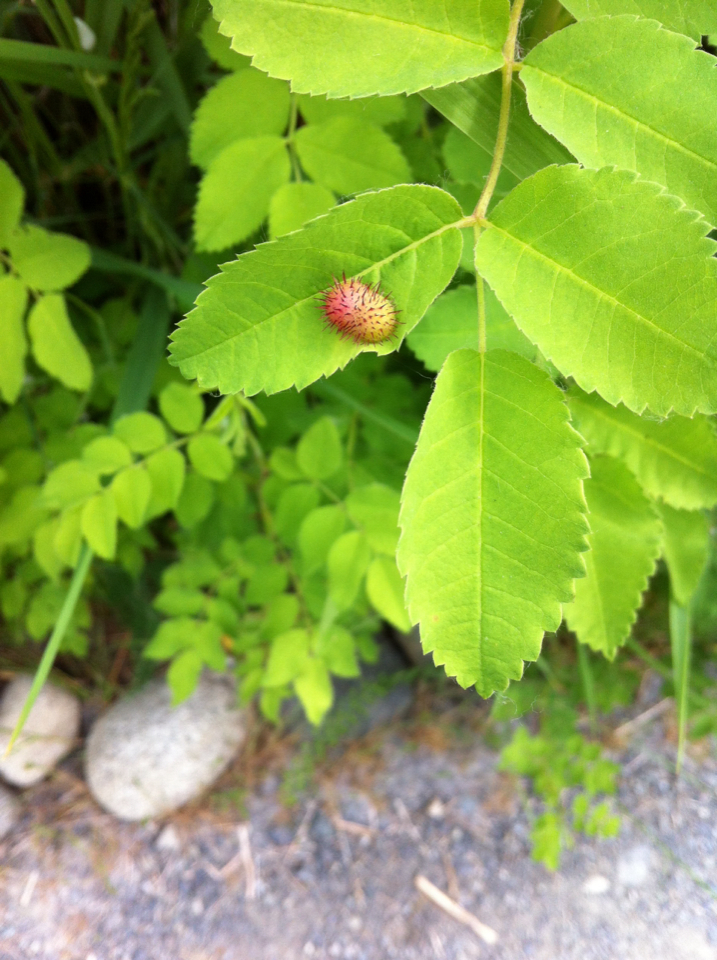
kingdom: Animalia
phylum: Arthropoda
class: Insecta
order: Hymenoptera
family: Cynipidae
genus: Diplolepis
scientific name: Diplolepis polita
